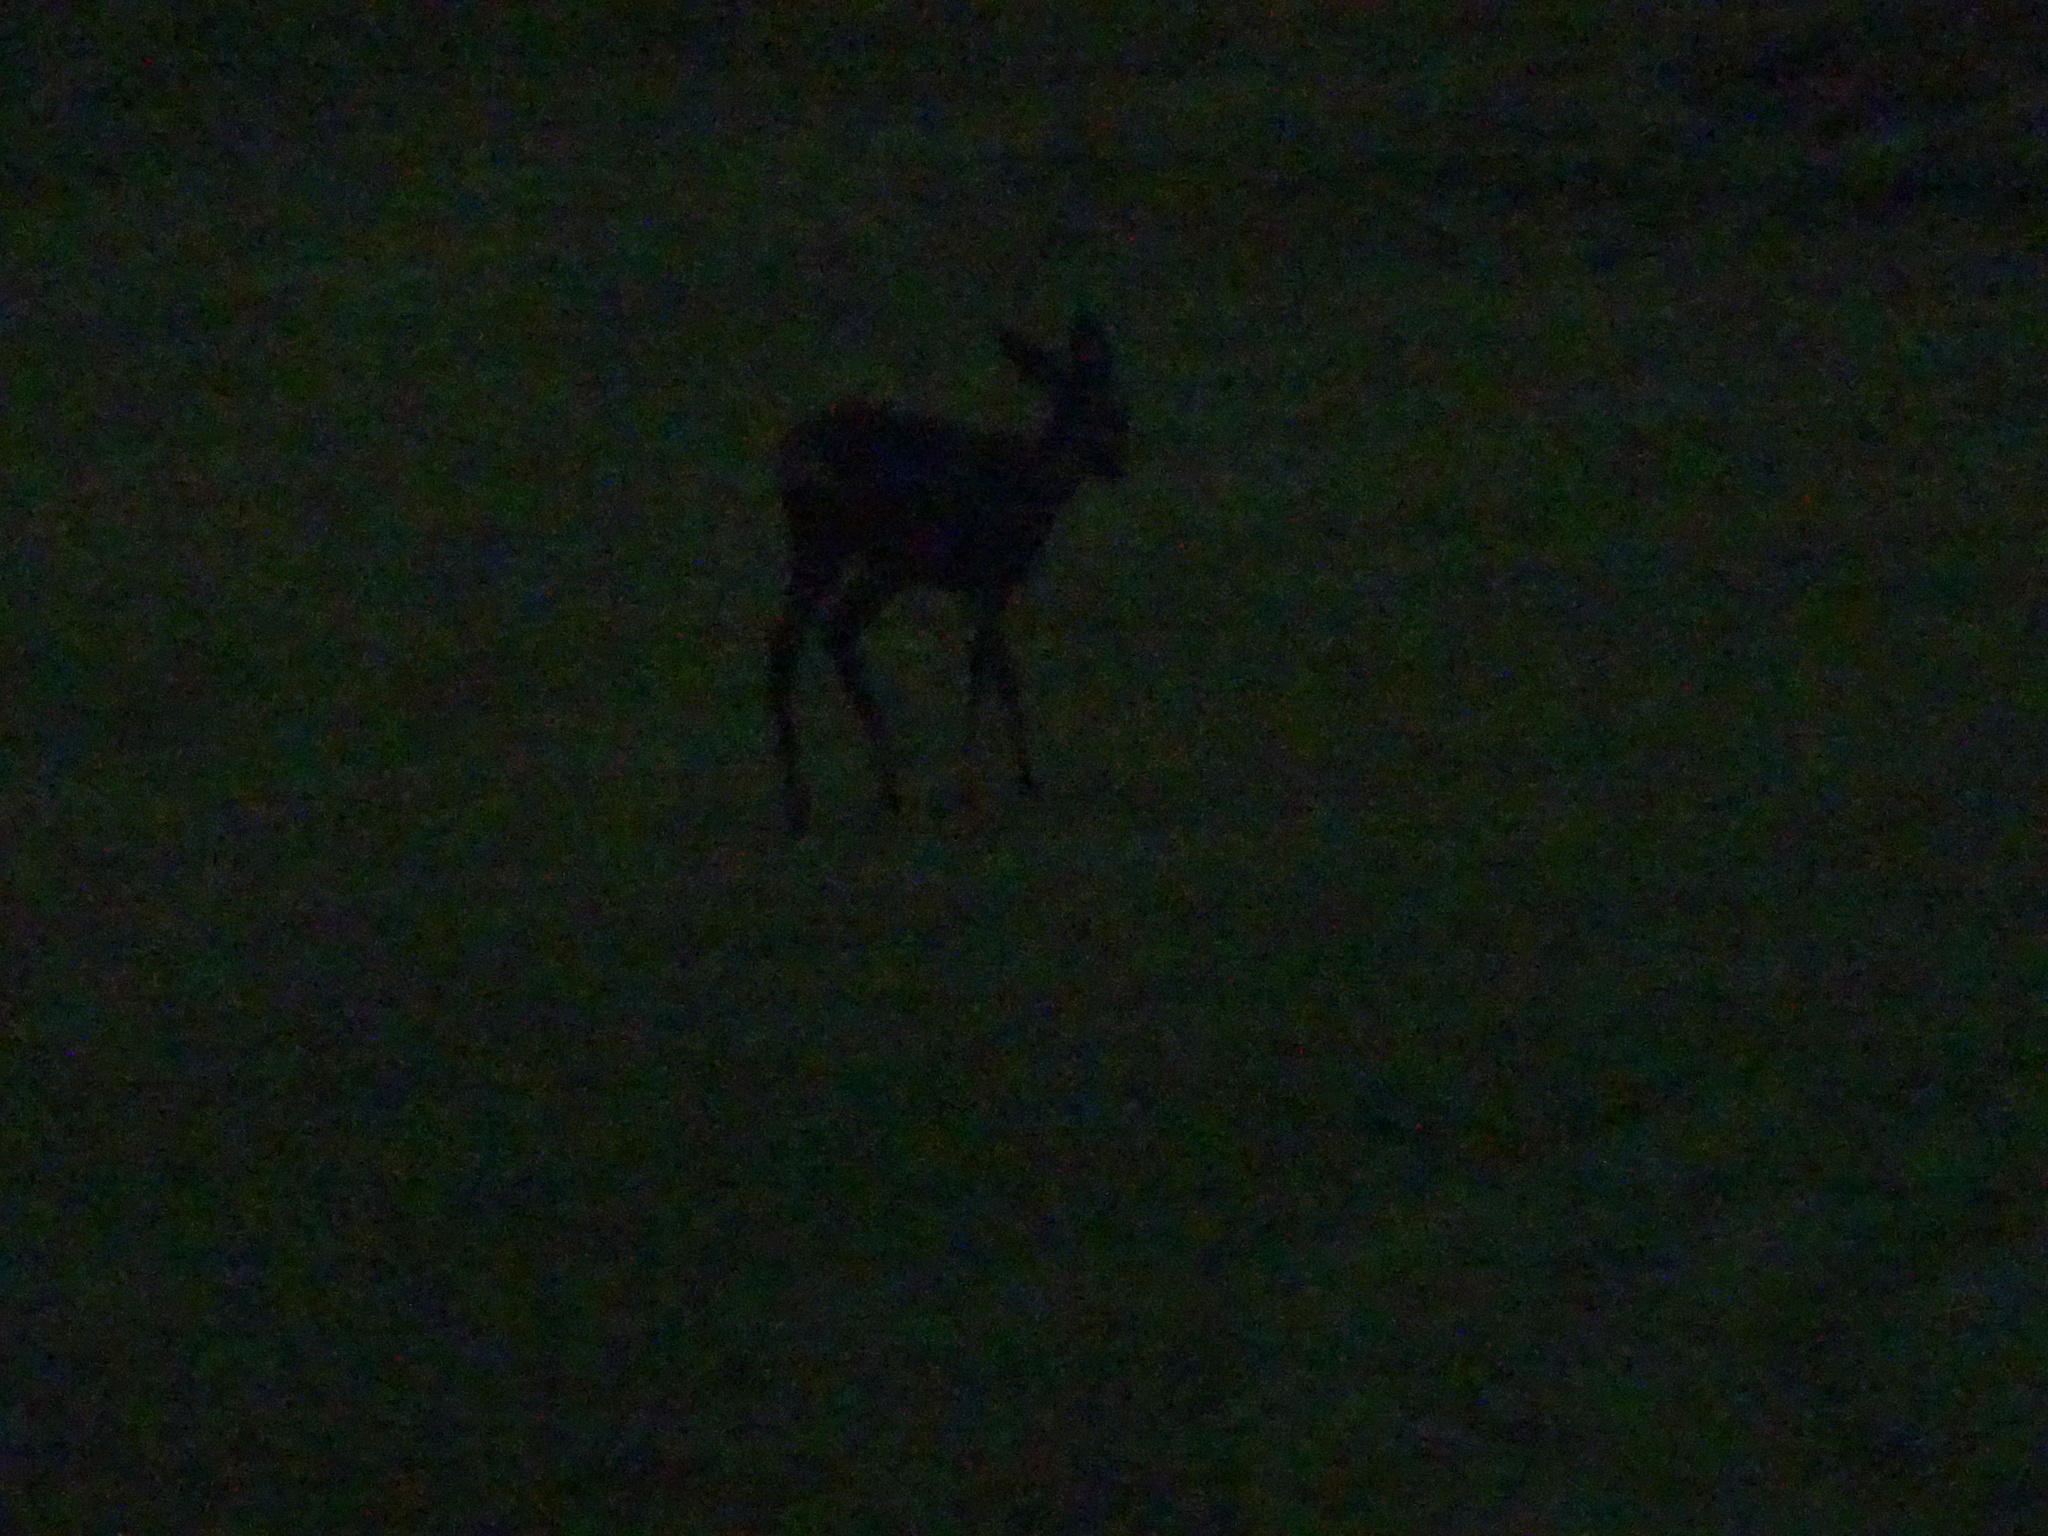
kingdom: Animalia
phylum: Chordata
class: Mammalia
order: Artiodactyla
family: Cervidae
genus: Capreolus
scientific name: Capreolus capreolus
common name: Western roe deer
